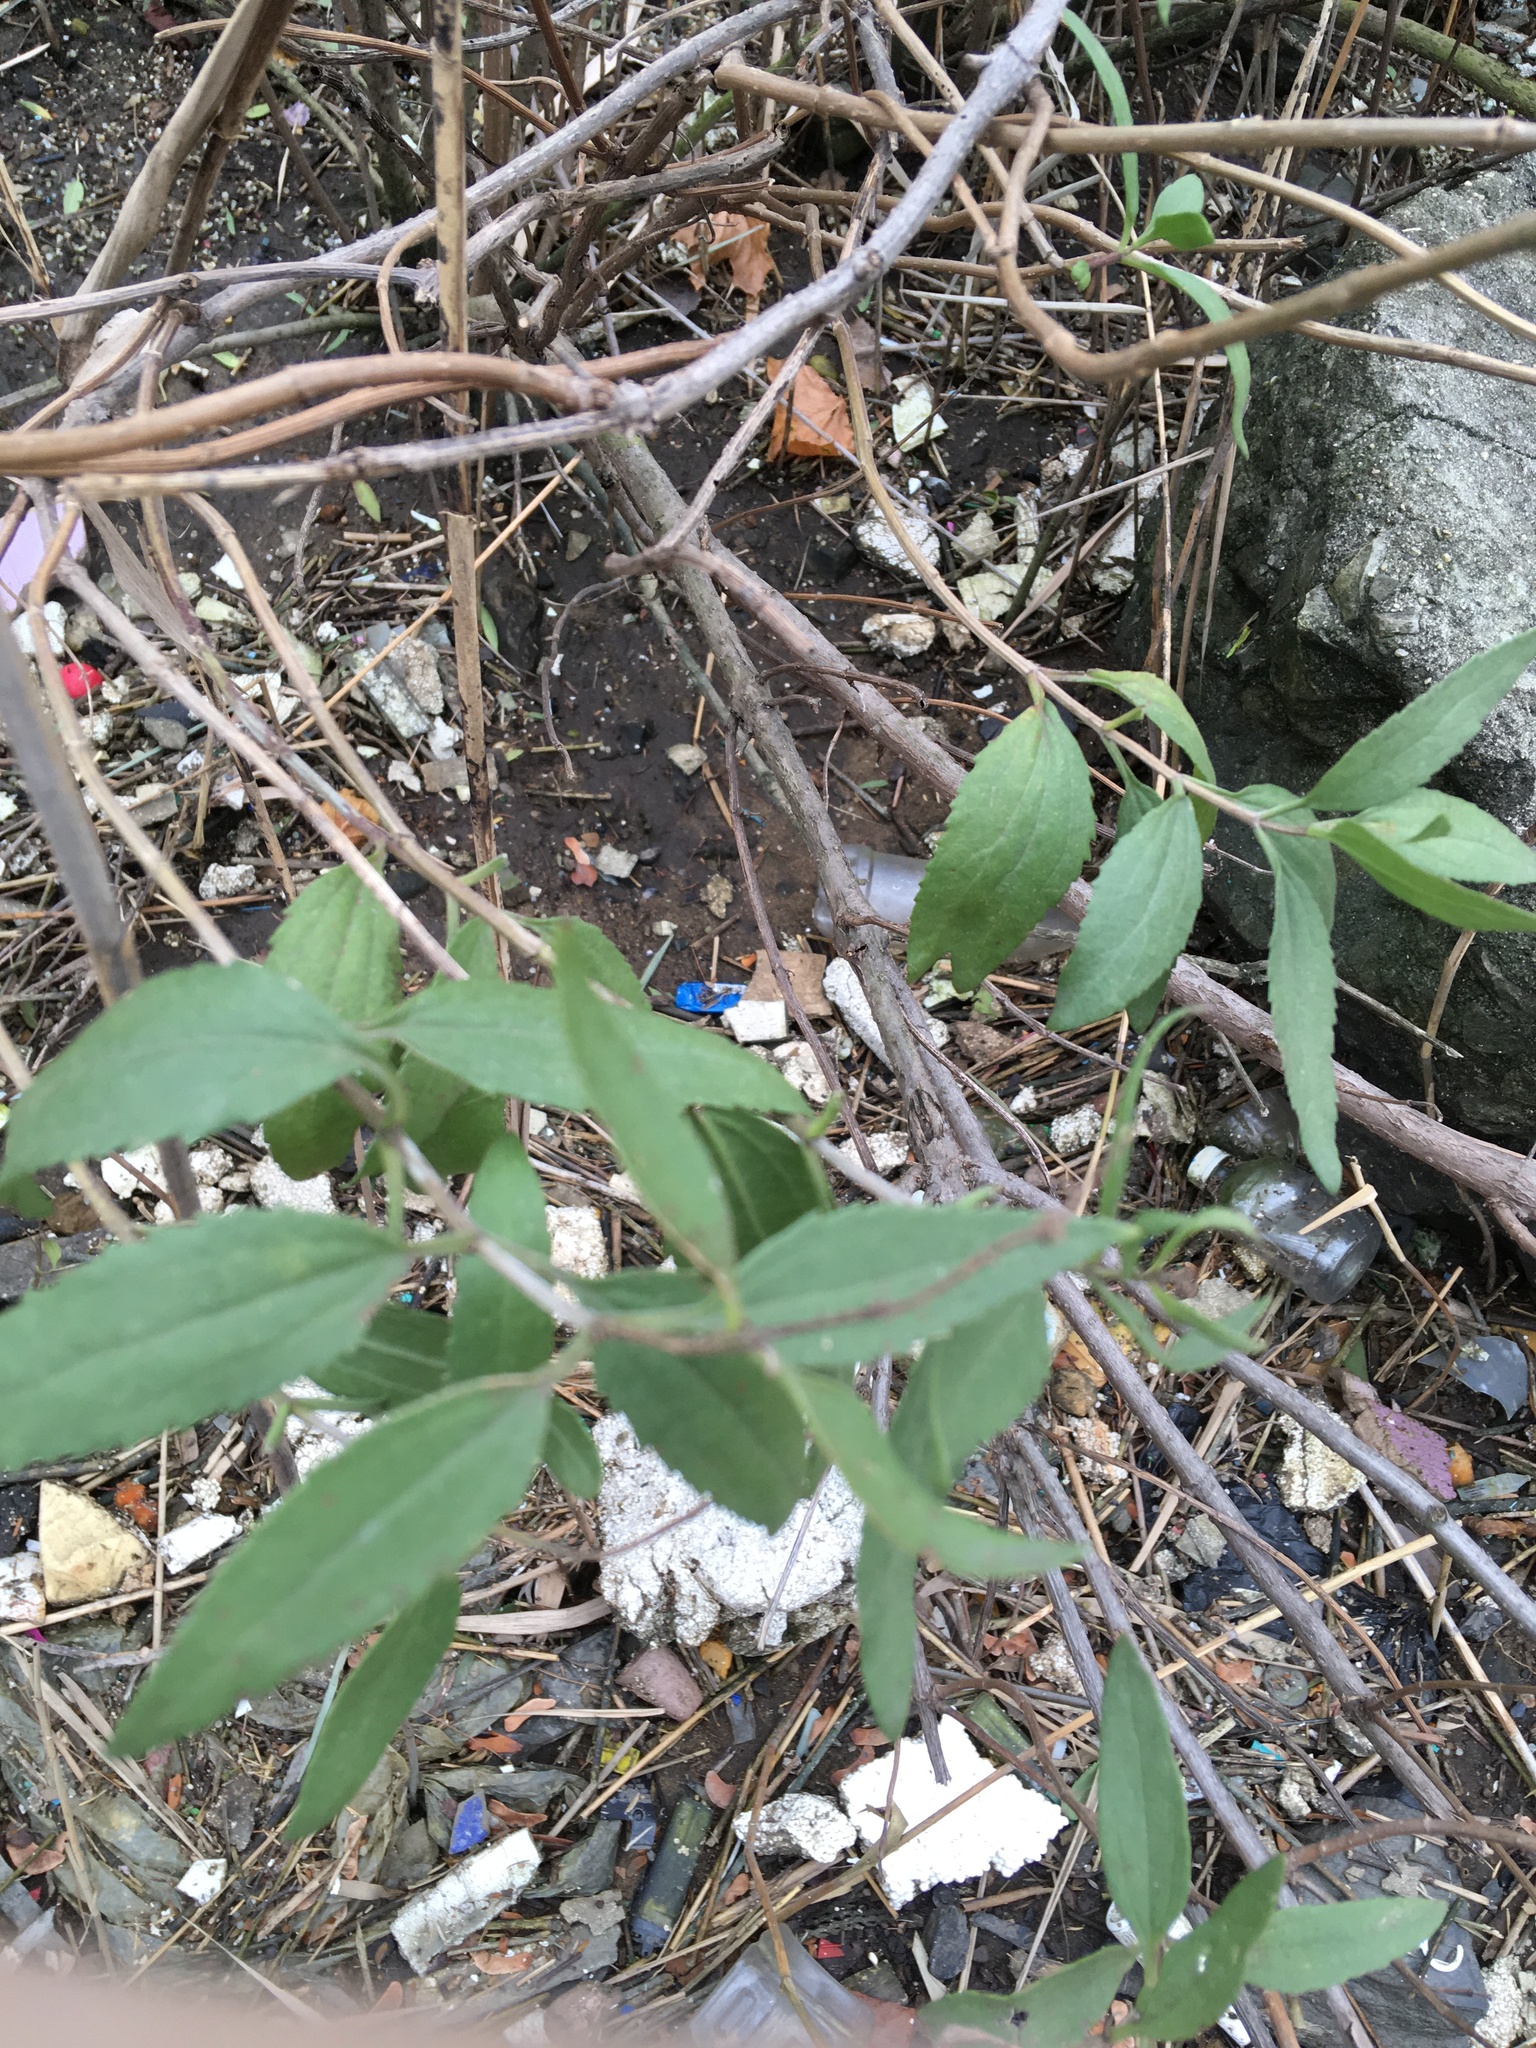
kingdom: Plantae
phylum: Tracheophyta
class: Magnoliopsida
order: Asterales
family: Asteraceae
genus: Iva
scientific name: Iva frutescens
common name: Big-leaved marsh-elder
